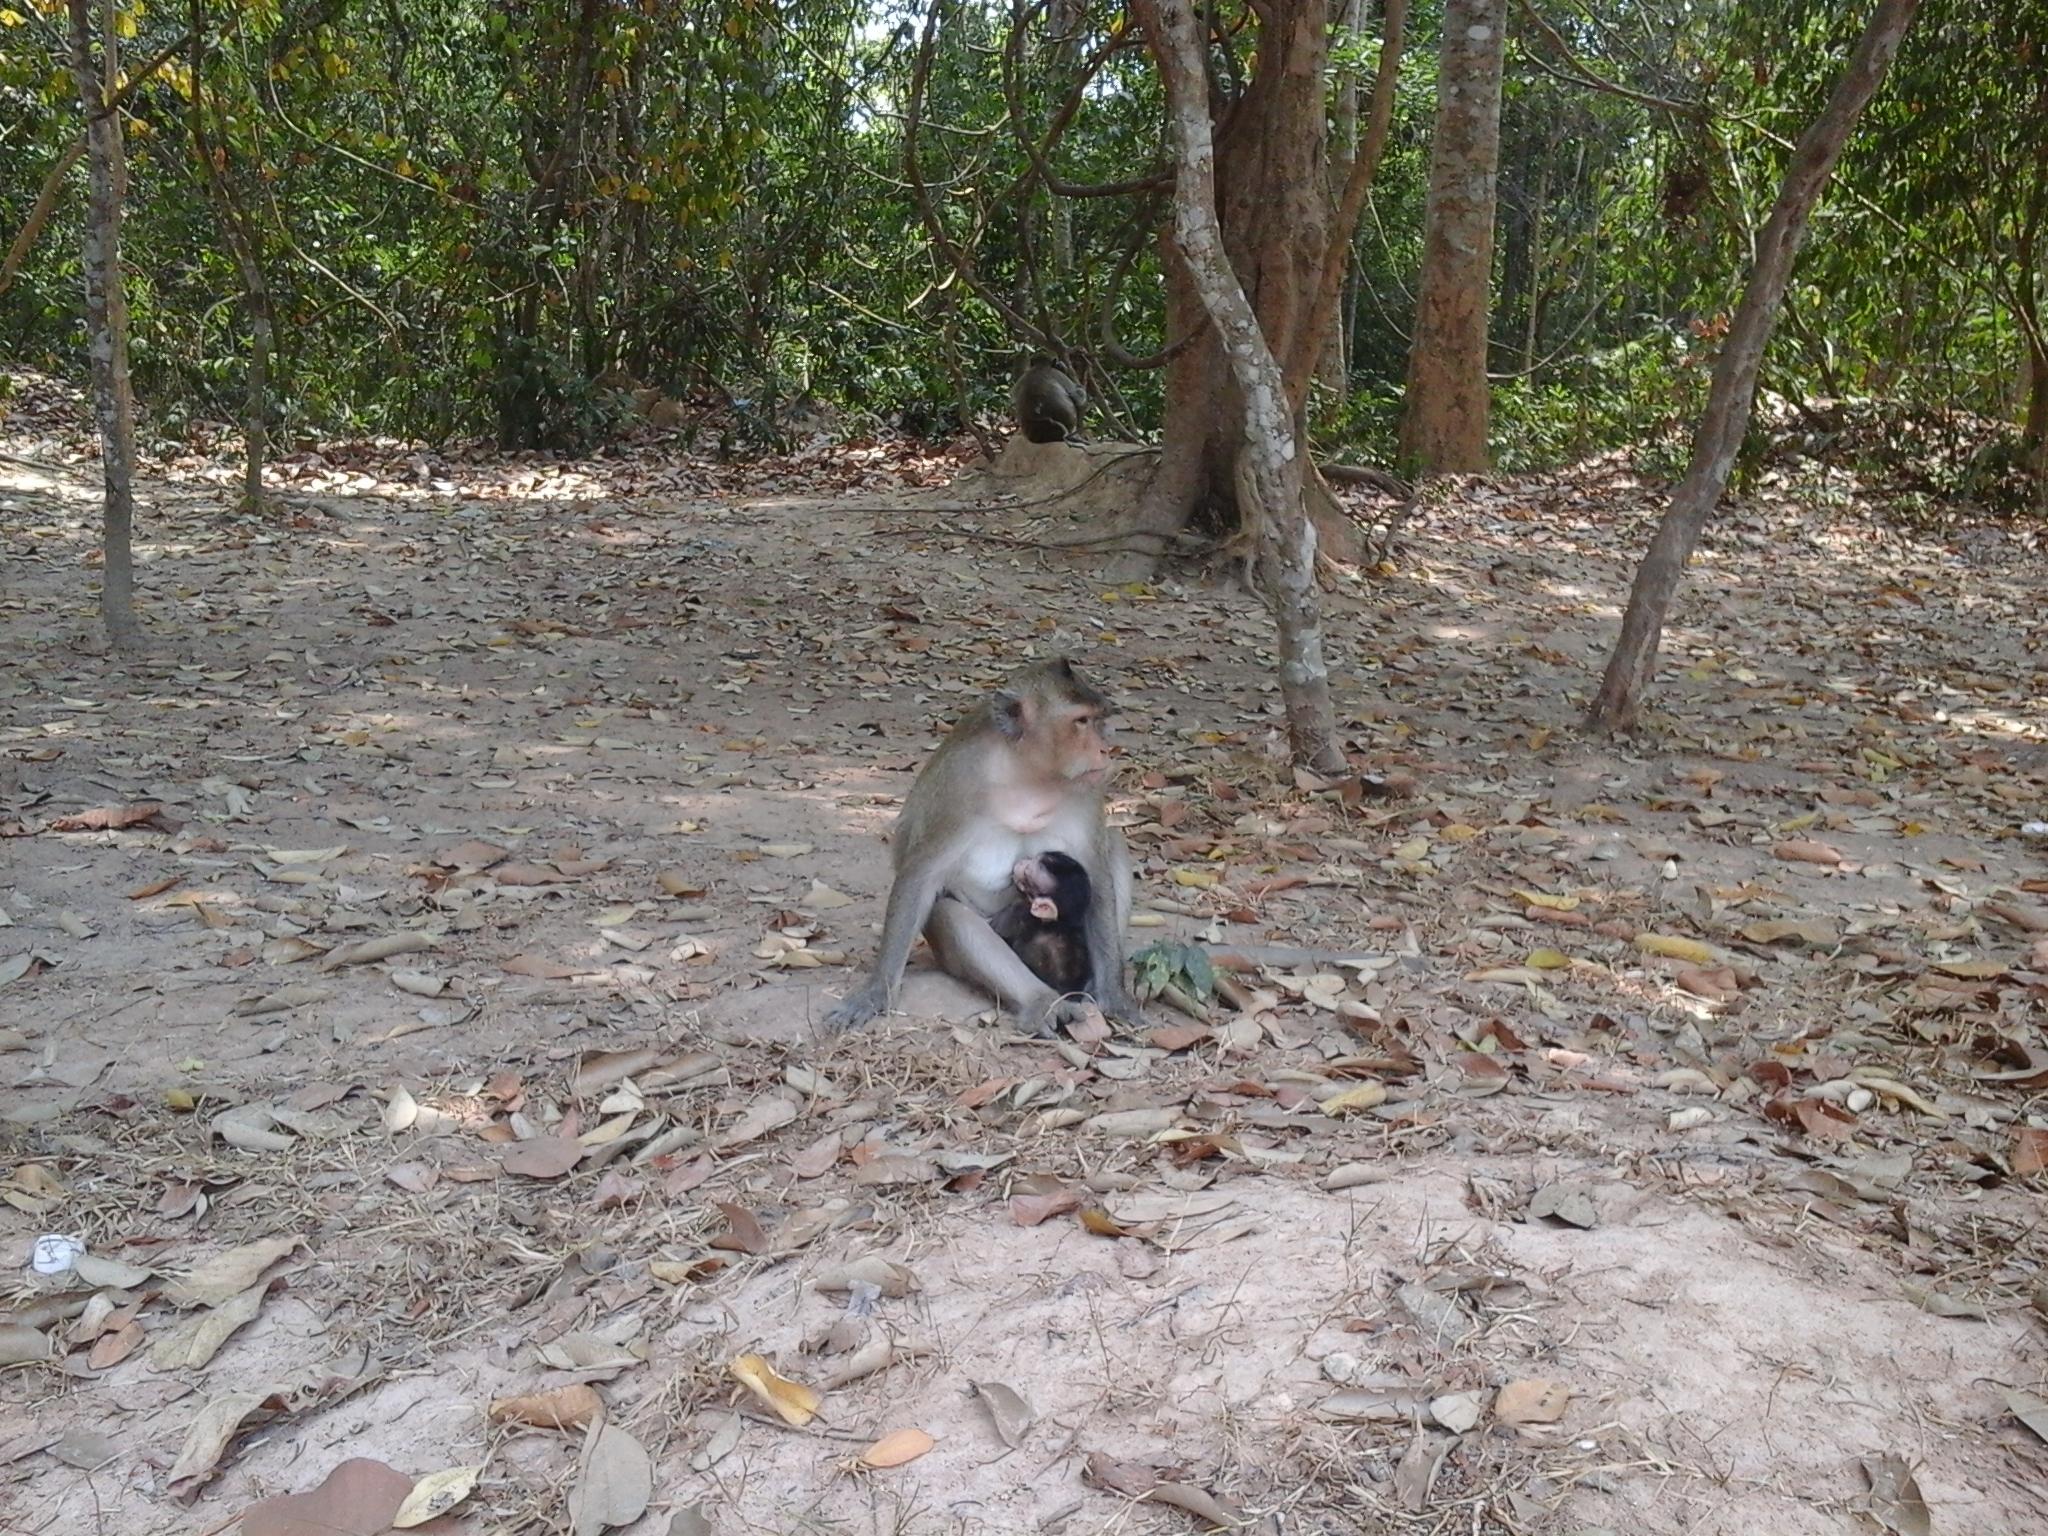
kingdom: Animalia
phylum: Chordata
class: Mammalia
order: Primates
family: Cercopithecidae
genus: Macaca
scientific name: Macaca fascicularis
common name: Crab-eating macaque
